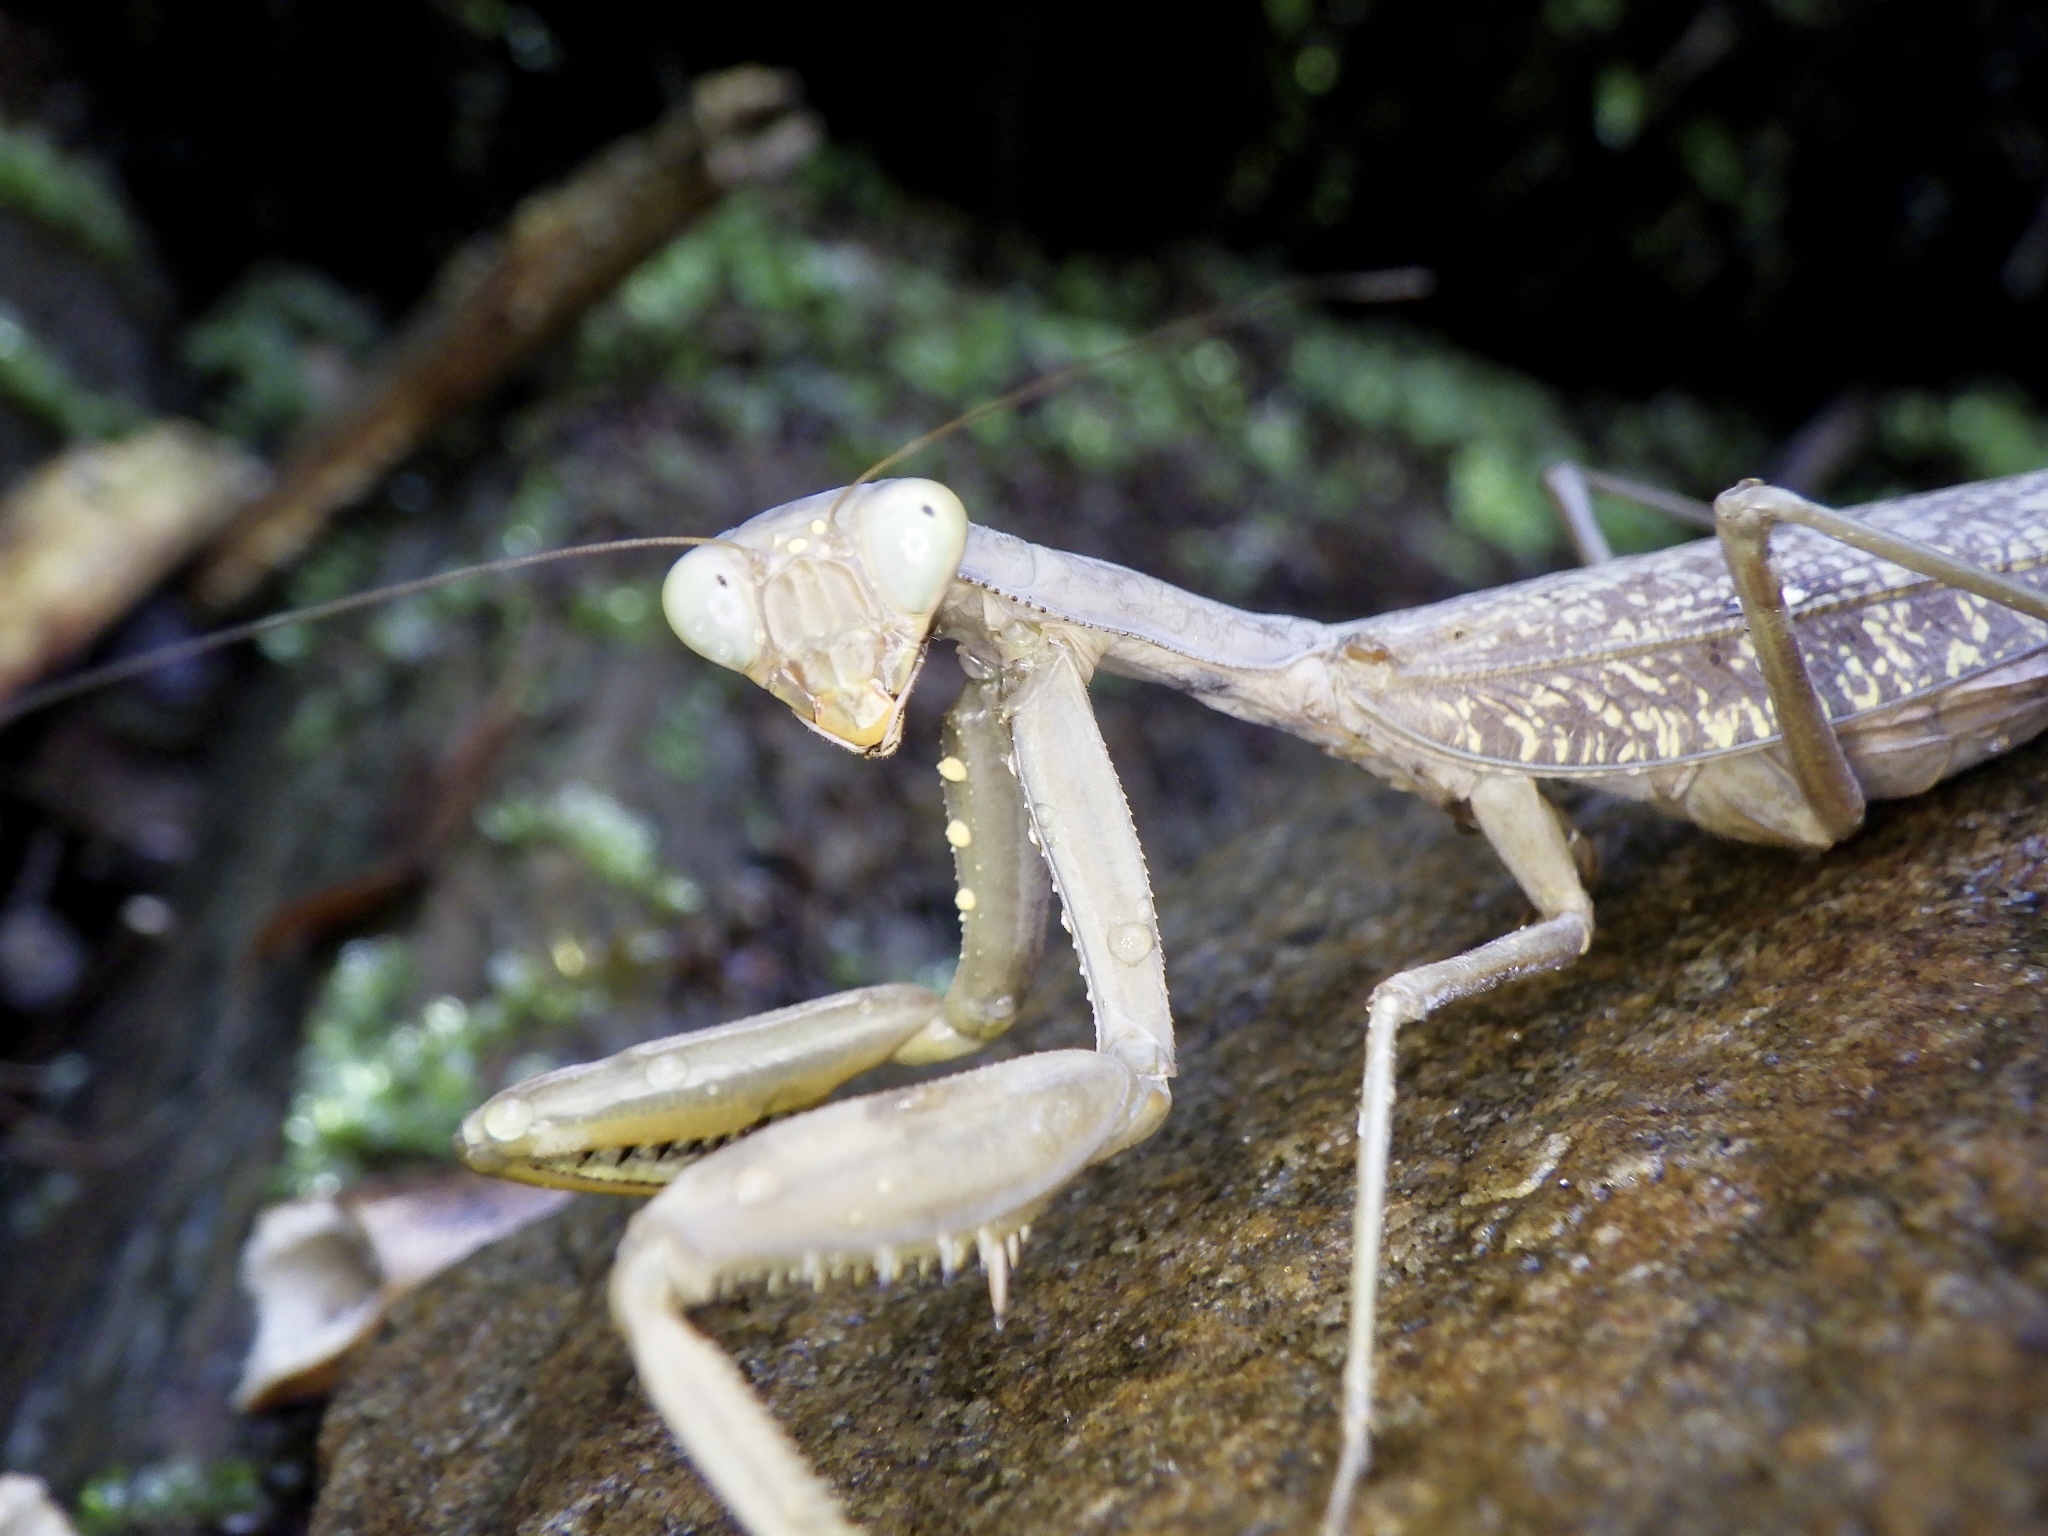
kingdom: Animalia
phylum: Arthropoda
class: Insecta
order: Mantodea
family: Mantidae
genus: Hierodula
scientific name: Hierodula patellifera
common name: Asian mantis
